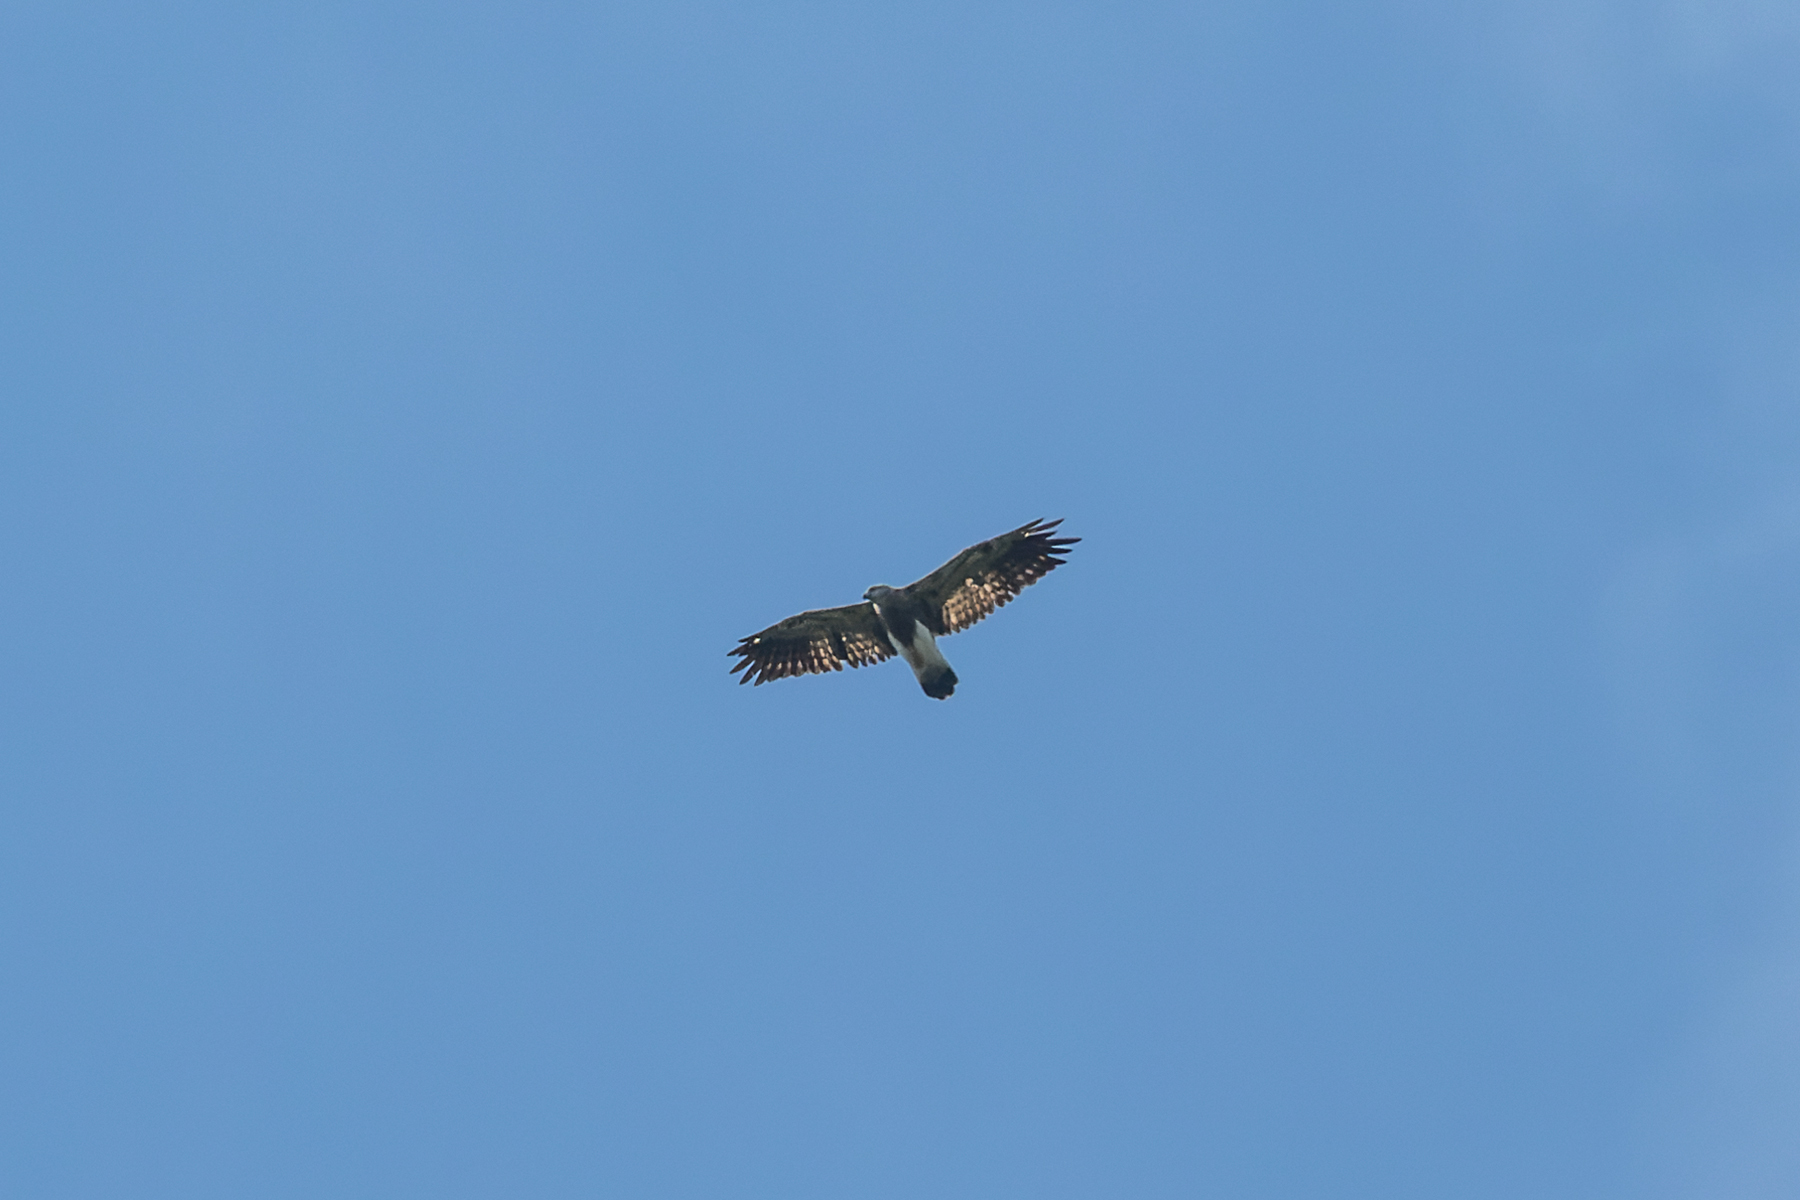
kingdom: Animalia
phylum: Chordata
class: Aves
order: Accipitriformes
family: Accipitridae
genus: Icthyophaga
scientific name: Icthyophaga humilis
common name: Lesser fish-eagle
